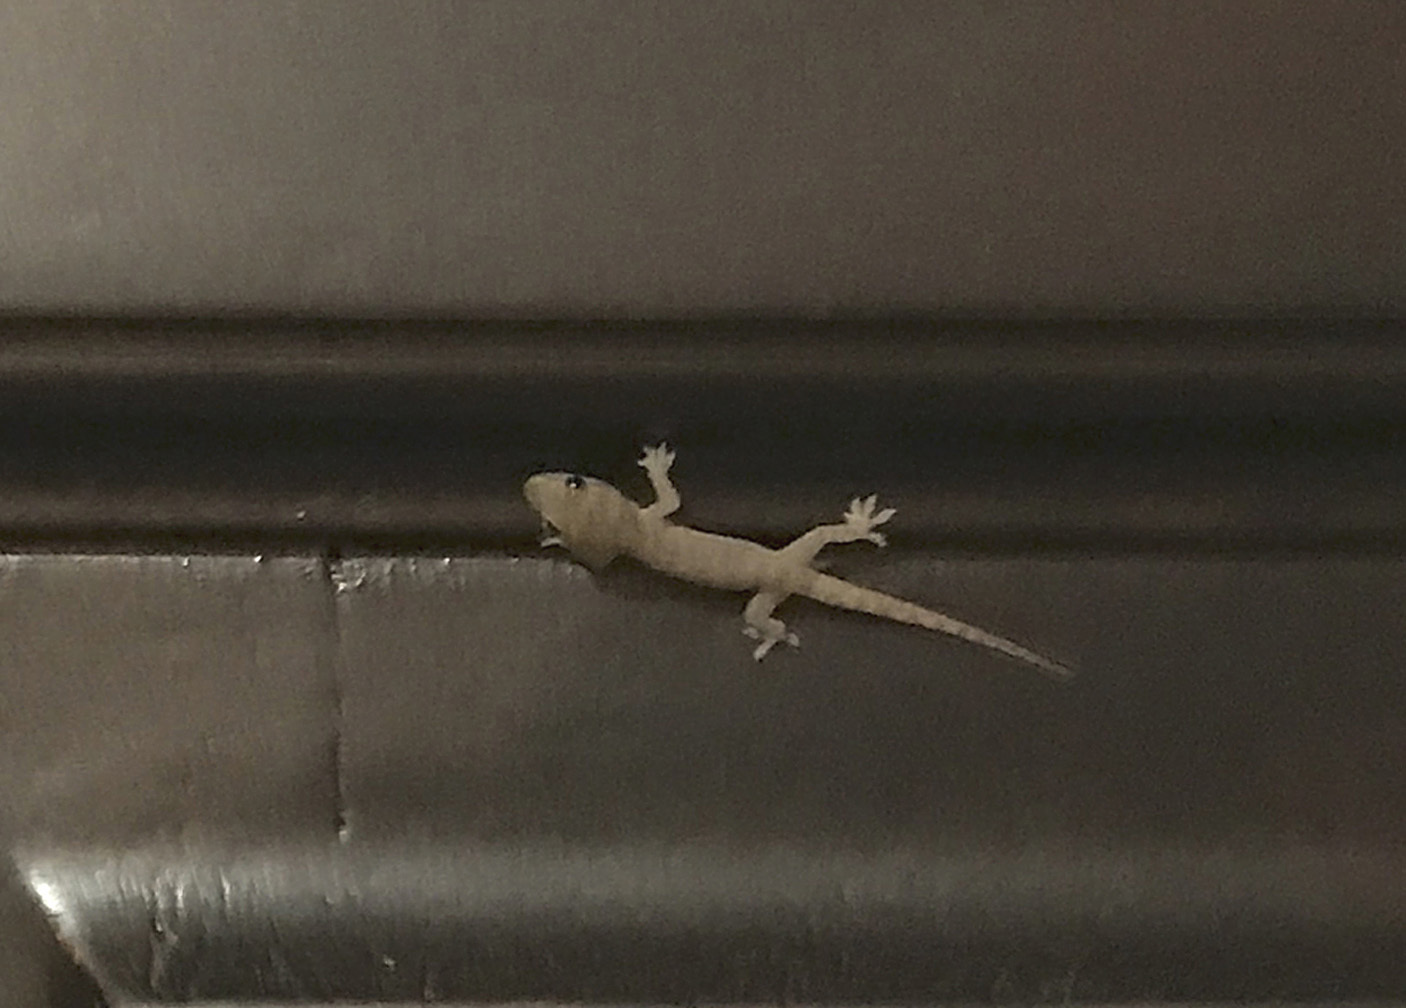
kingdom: Animalia
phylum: Chordata
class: Squamata
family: Gekkonidae
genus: Hemidactylus
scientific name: Hemidactylus frenatus
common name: Common house gecko
